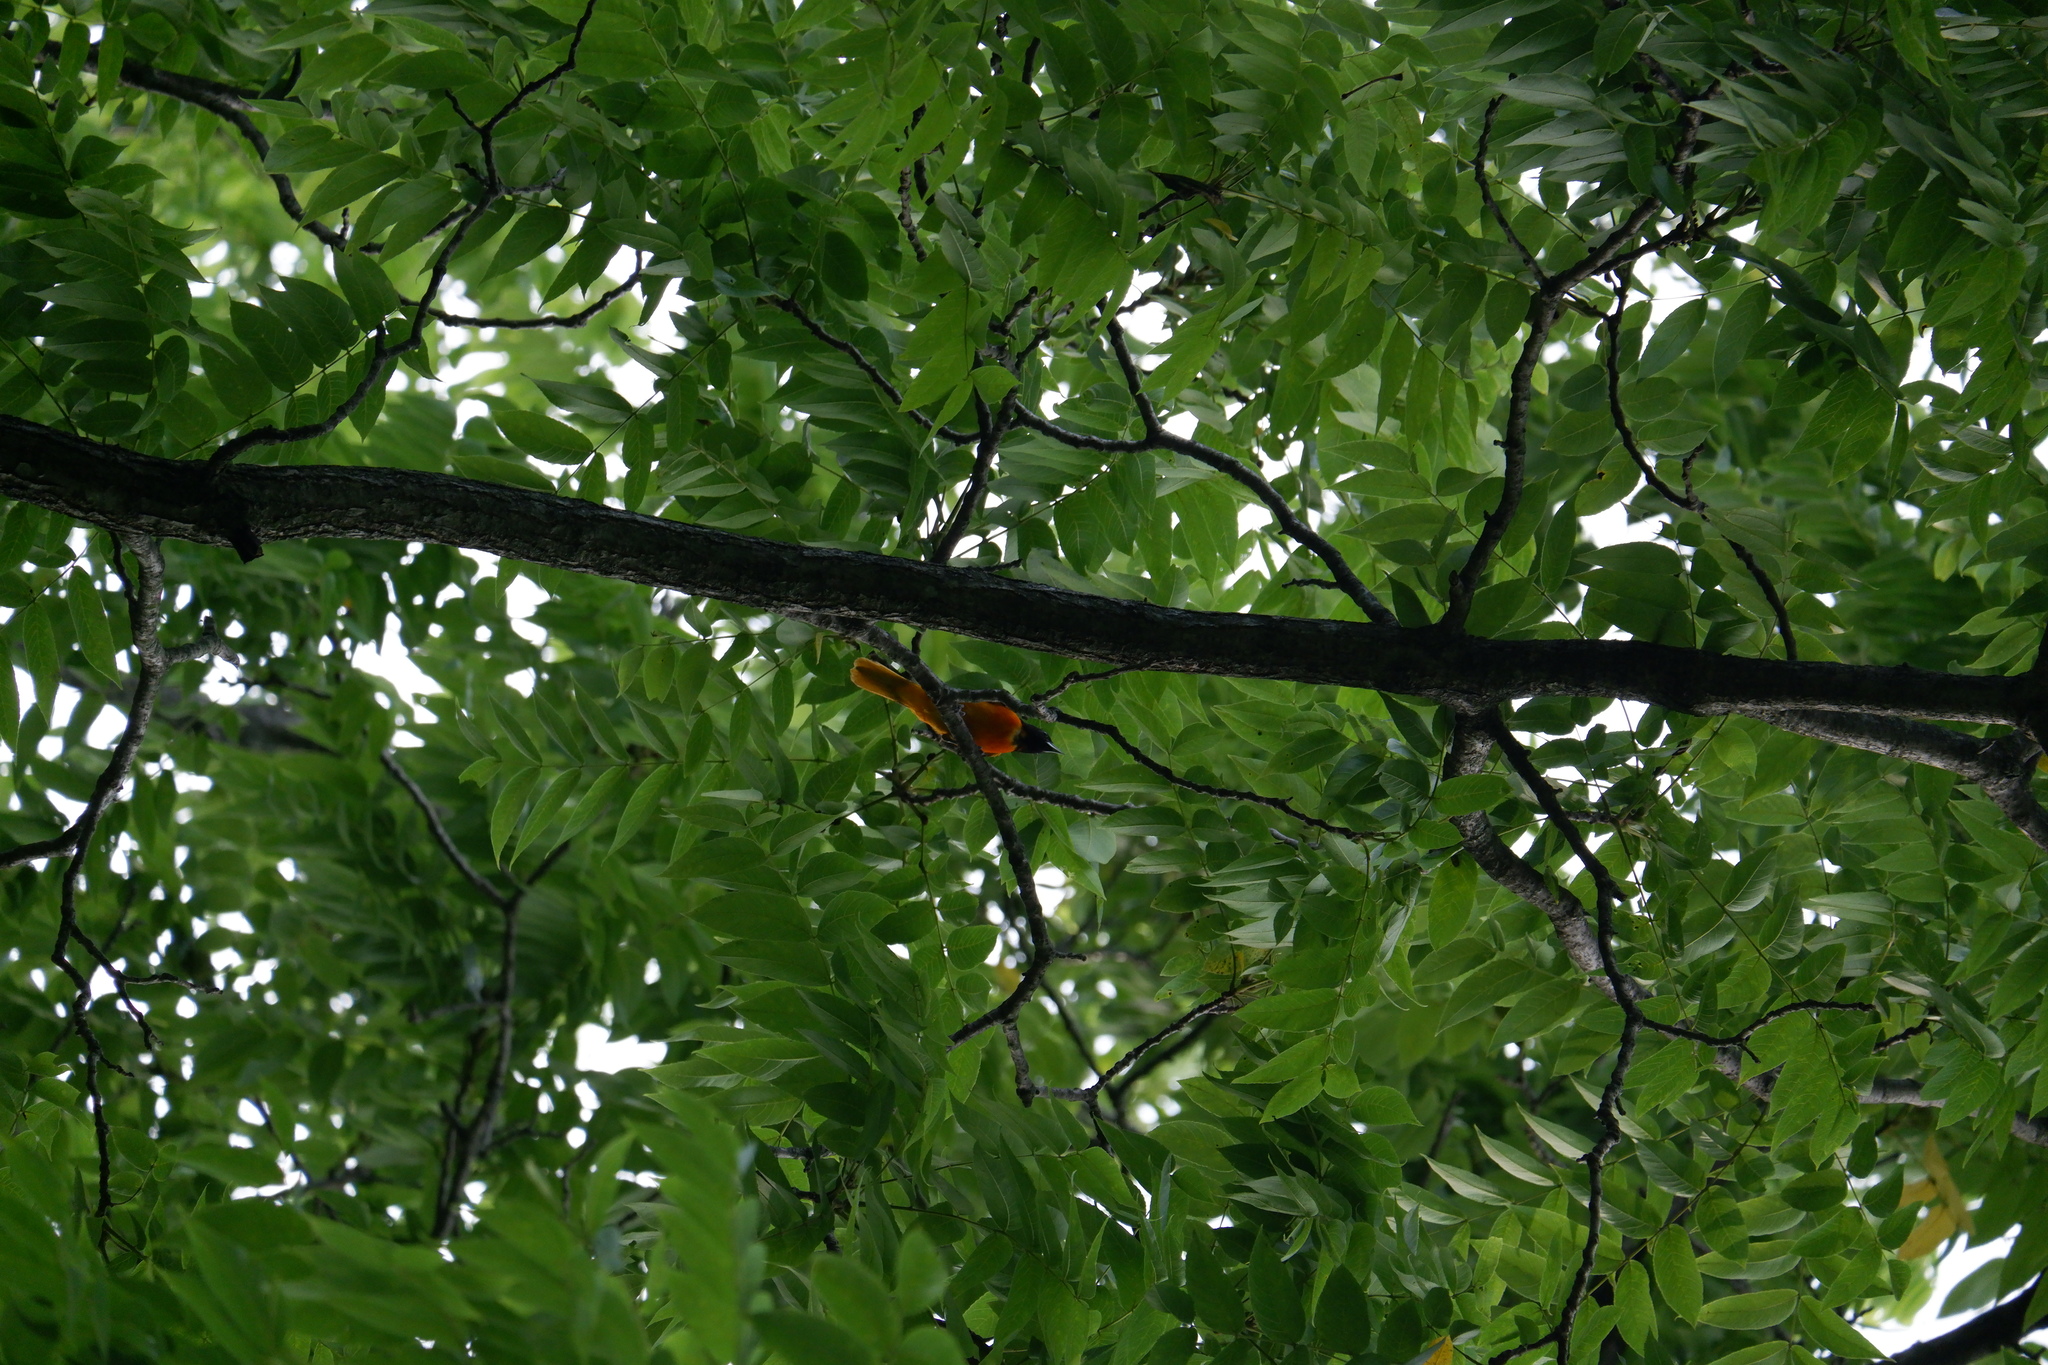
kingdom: Animalia
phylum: Chordata
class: Aves
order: Passeriformes
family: Icteridae
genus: Icterus
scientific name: Icterus galbula
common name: Baltimore oriole
